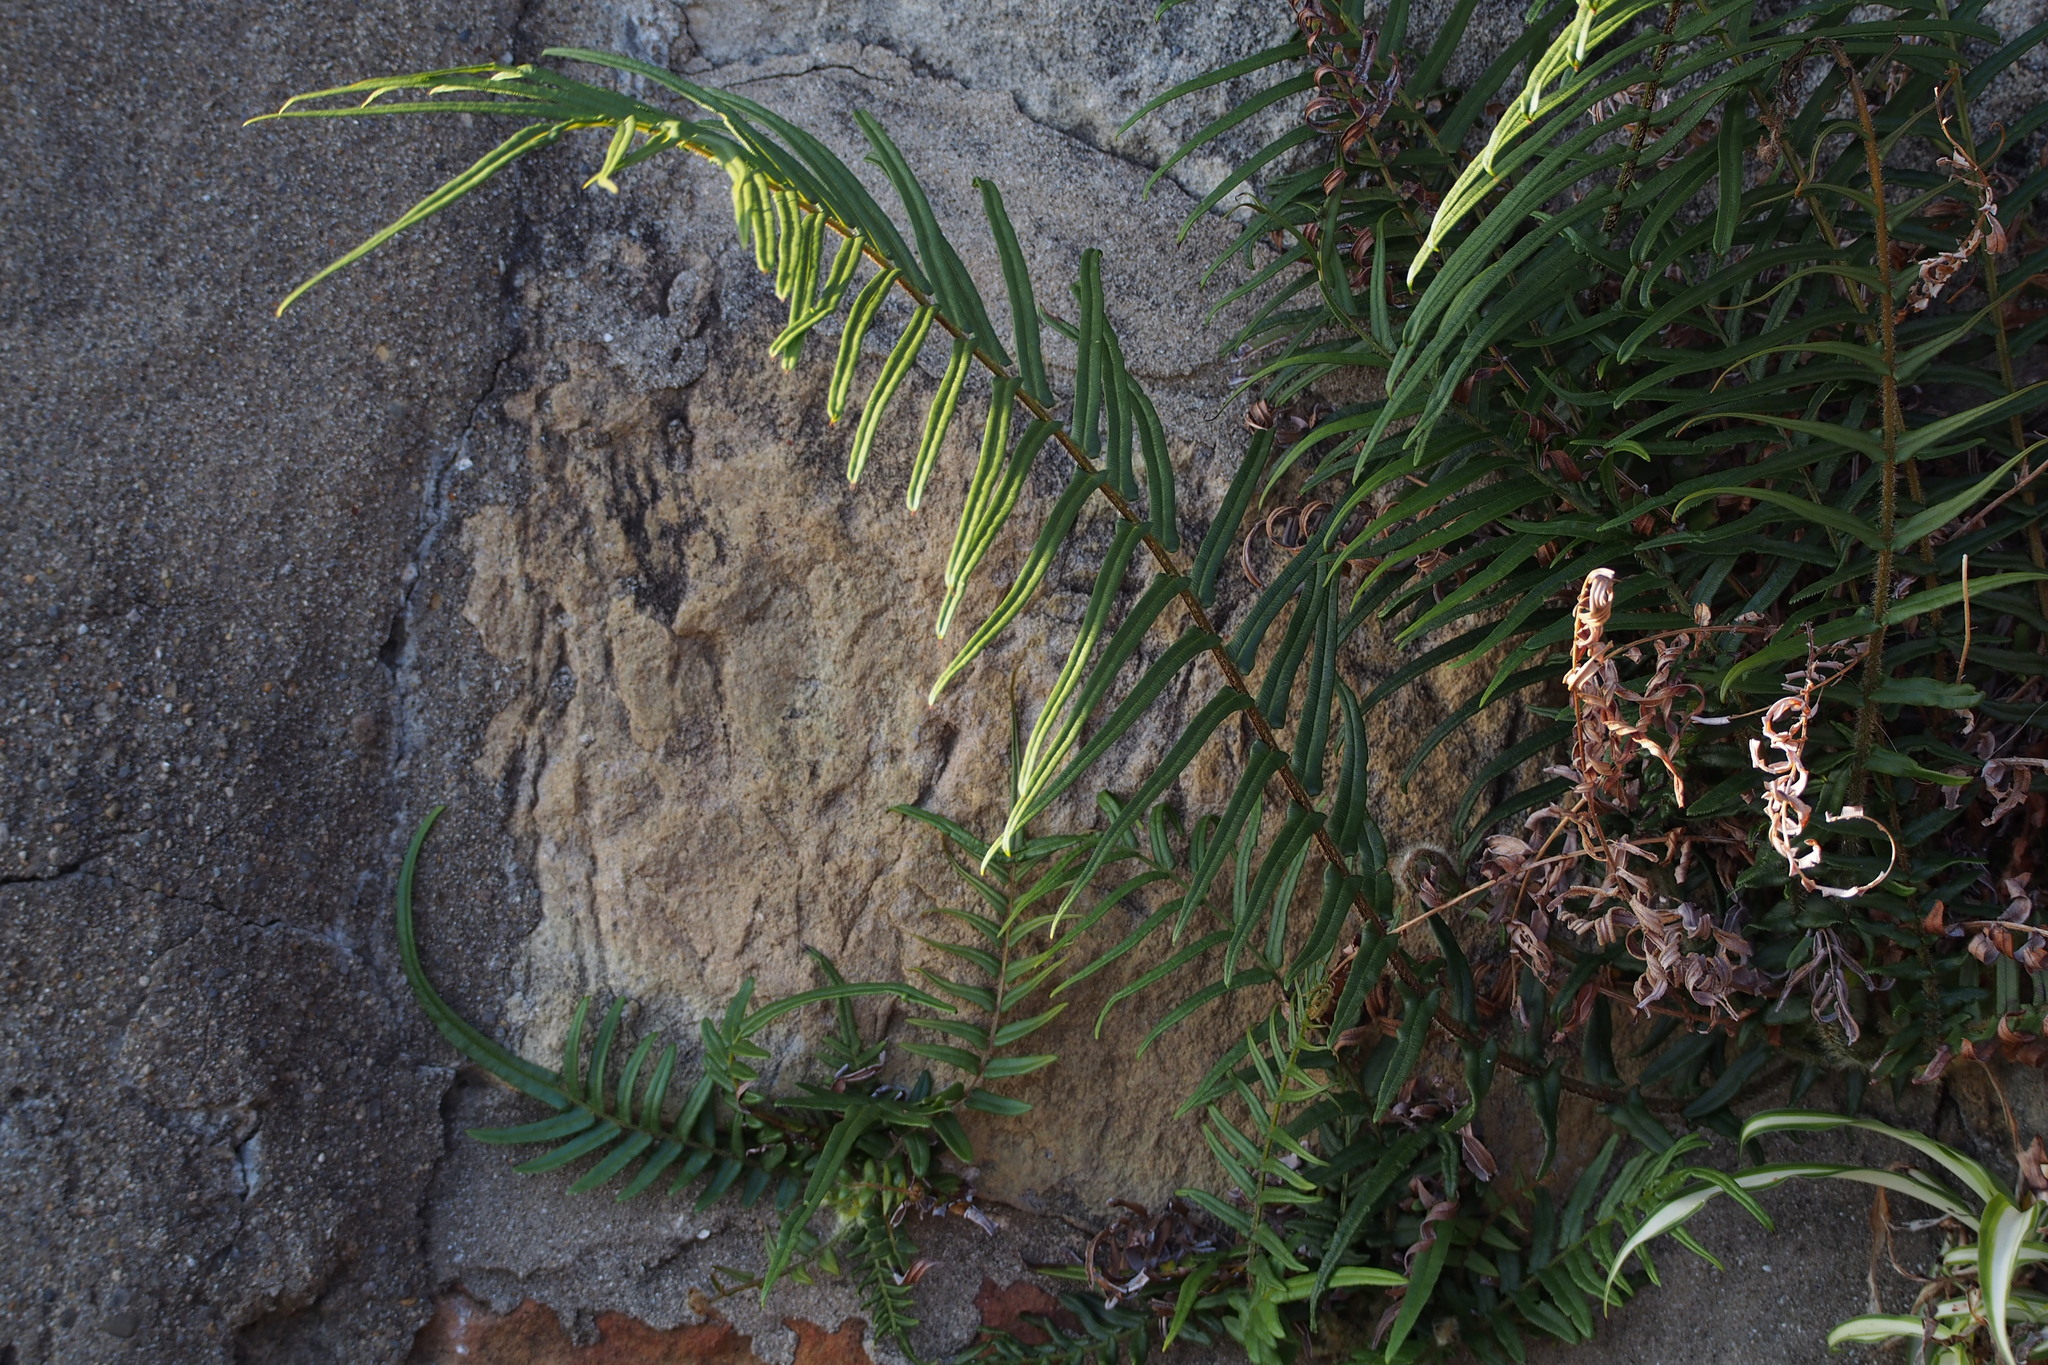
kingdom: Plantae
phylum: Tracheophyta
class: Polypodiopsida
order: Polypodiales
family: Pteridaceae
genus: Pteris
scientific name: Pteris vittata
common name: Ladder brake
